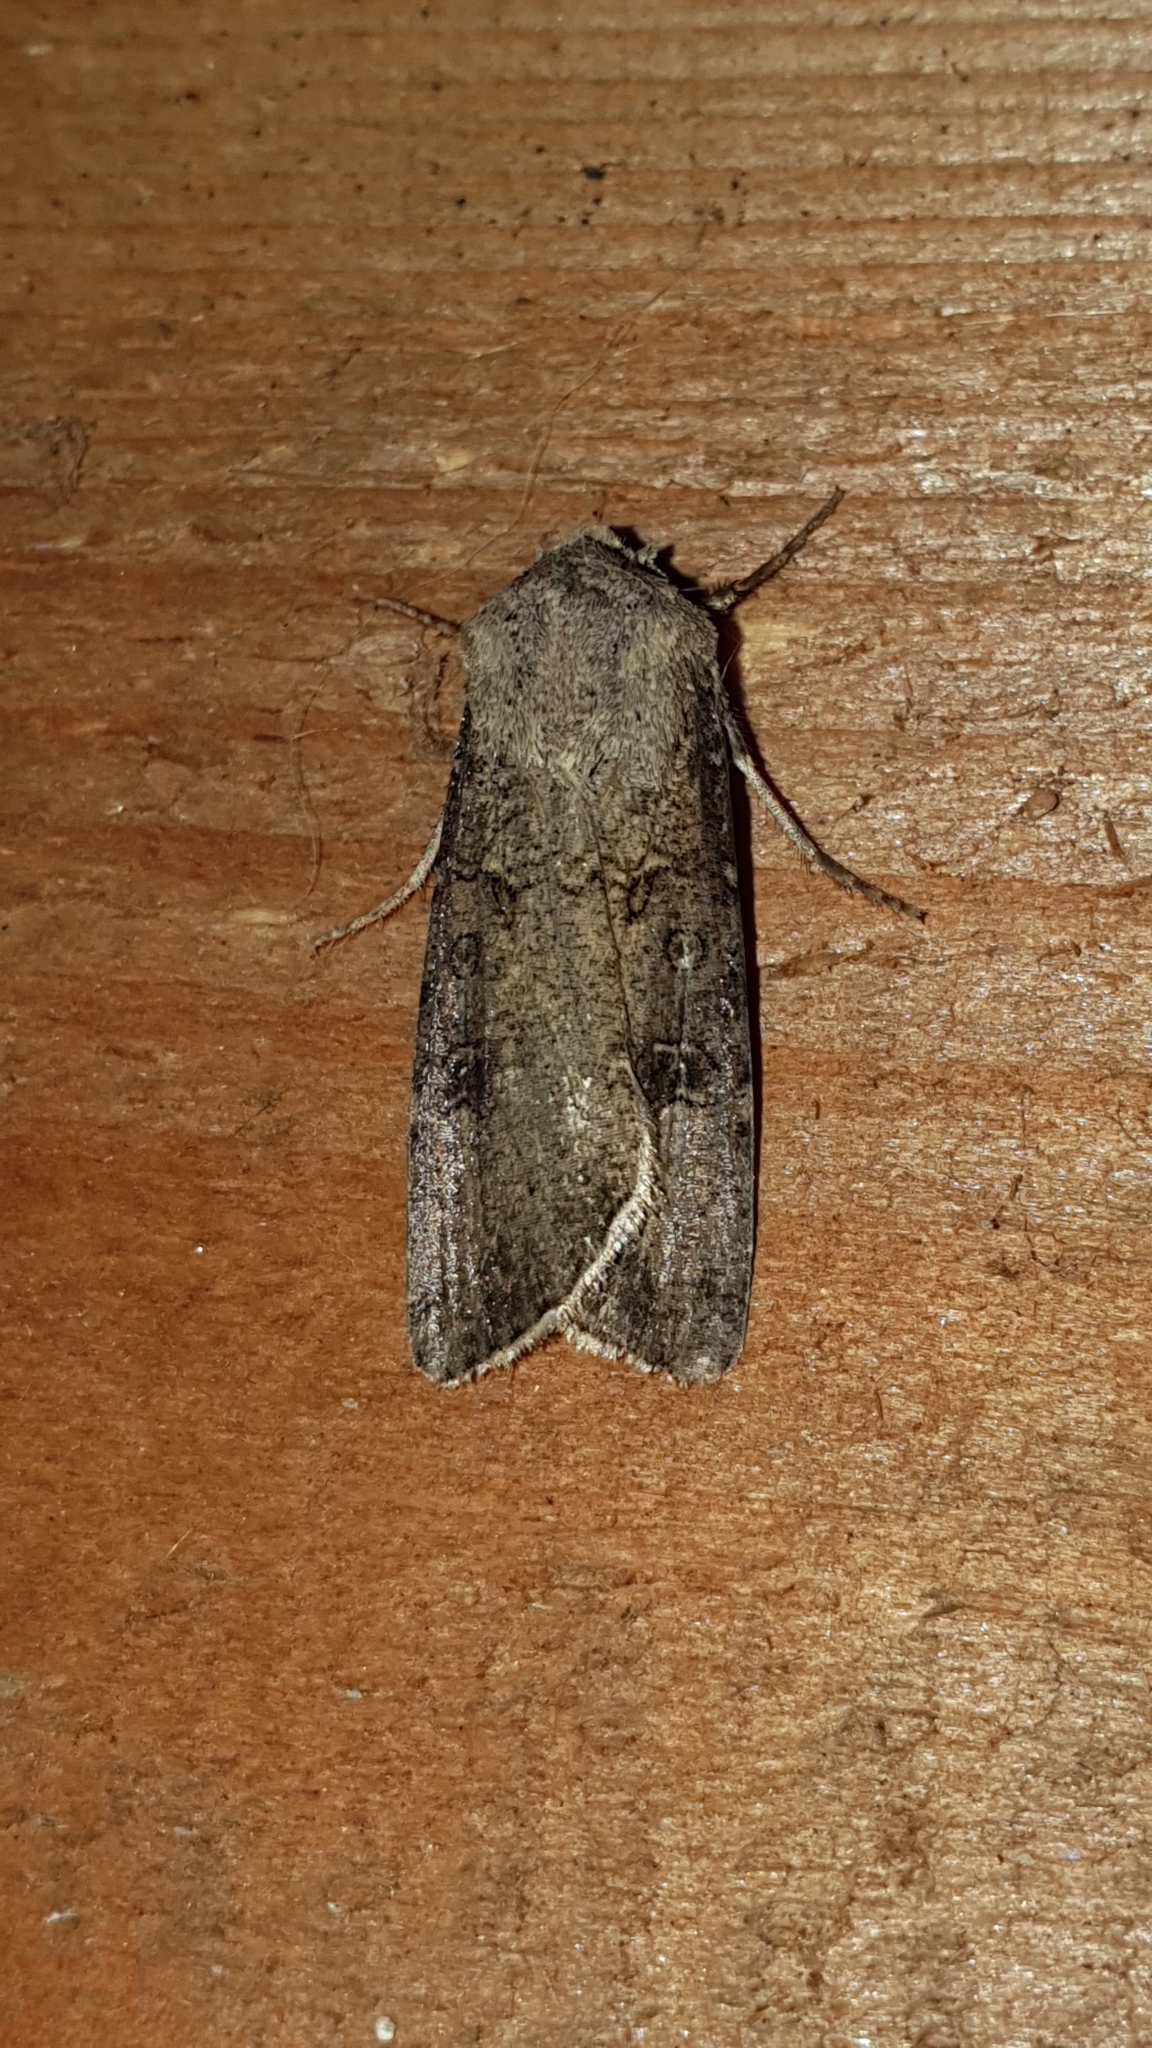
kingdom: Animalia
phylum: Arthropoda
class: Insecta
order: Lepidoptera
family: Noctuidae
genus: Agrotis
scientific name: Agrotis segetum
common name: Turnip moth
